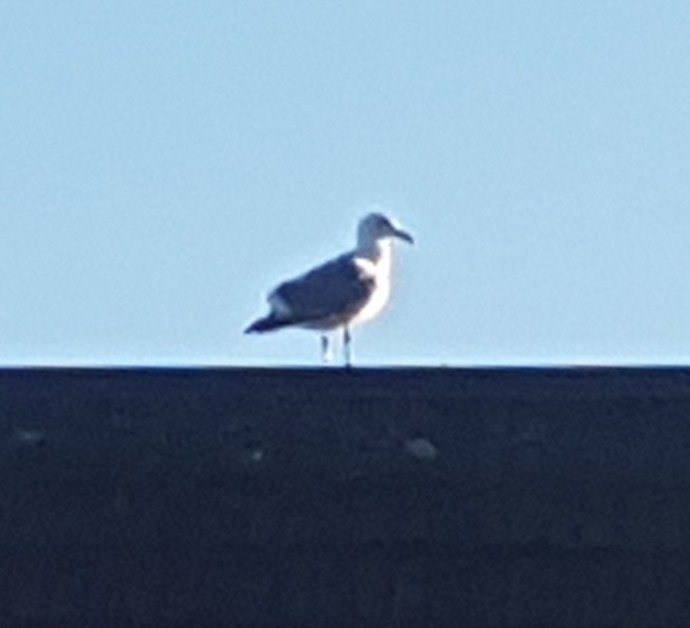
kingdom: Animalia
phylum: Chordata
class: Aves
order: Charadriiformes
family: Laridae
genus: Larus
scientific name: Larus
